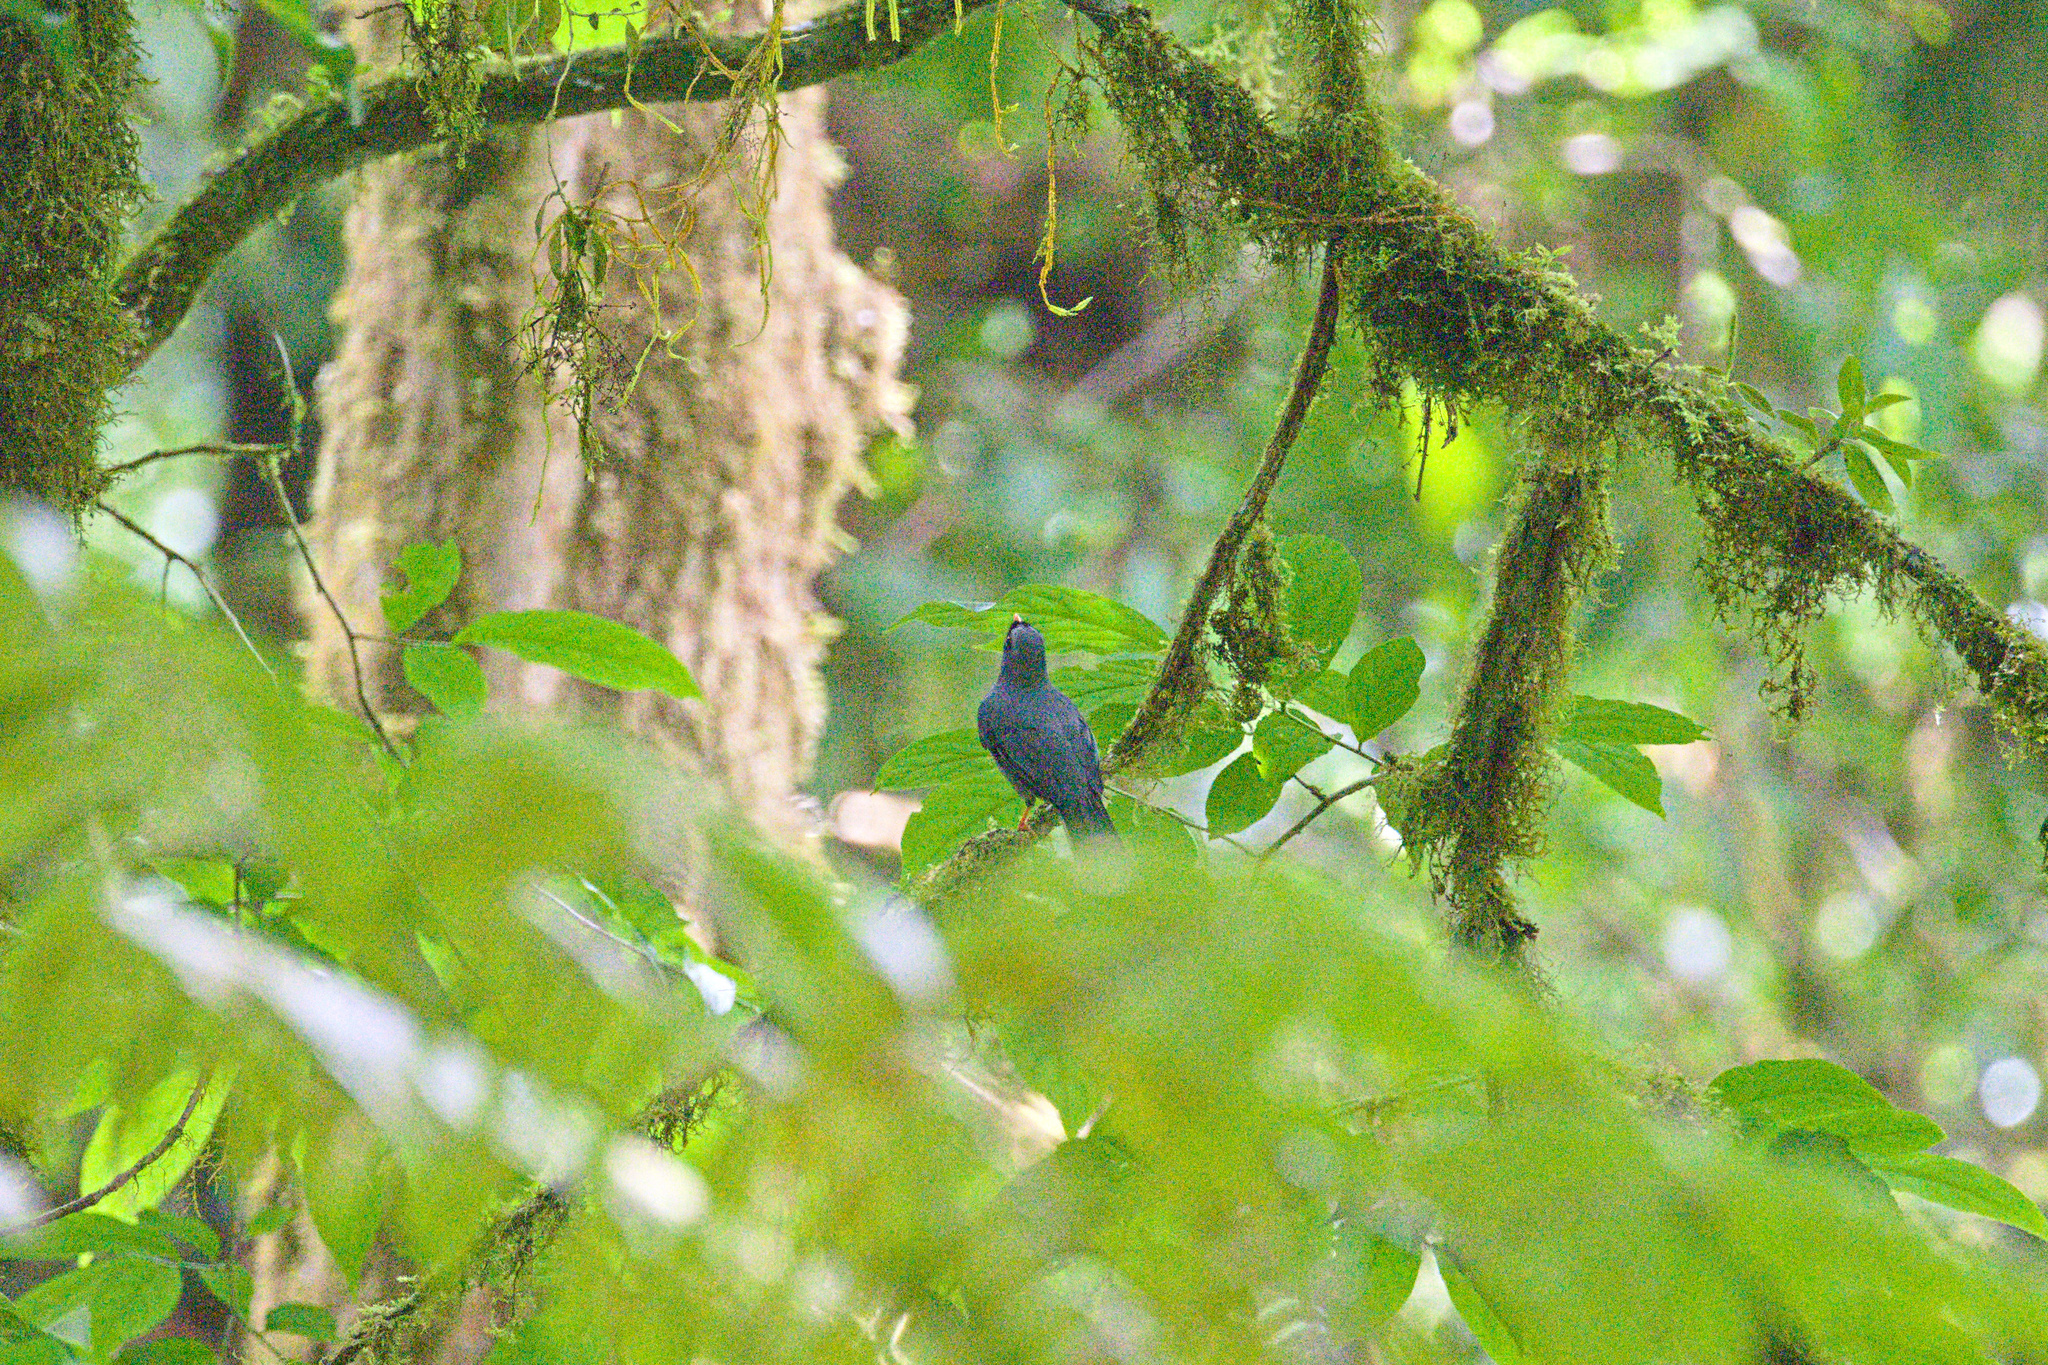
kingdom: Animalia
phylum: Chordata
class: Aves
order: Passeriformes
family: Turdidae
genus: Myadestes
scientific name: Myadestes melanops
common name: Black-faced solitaire
